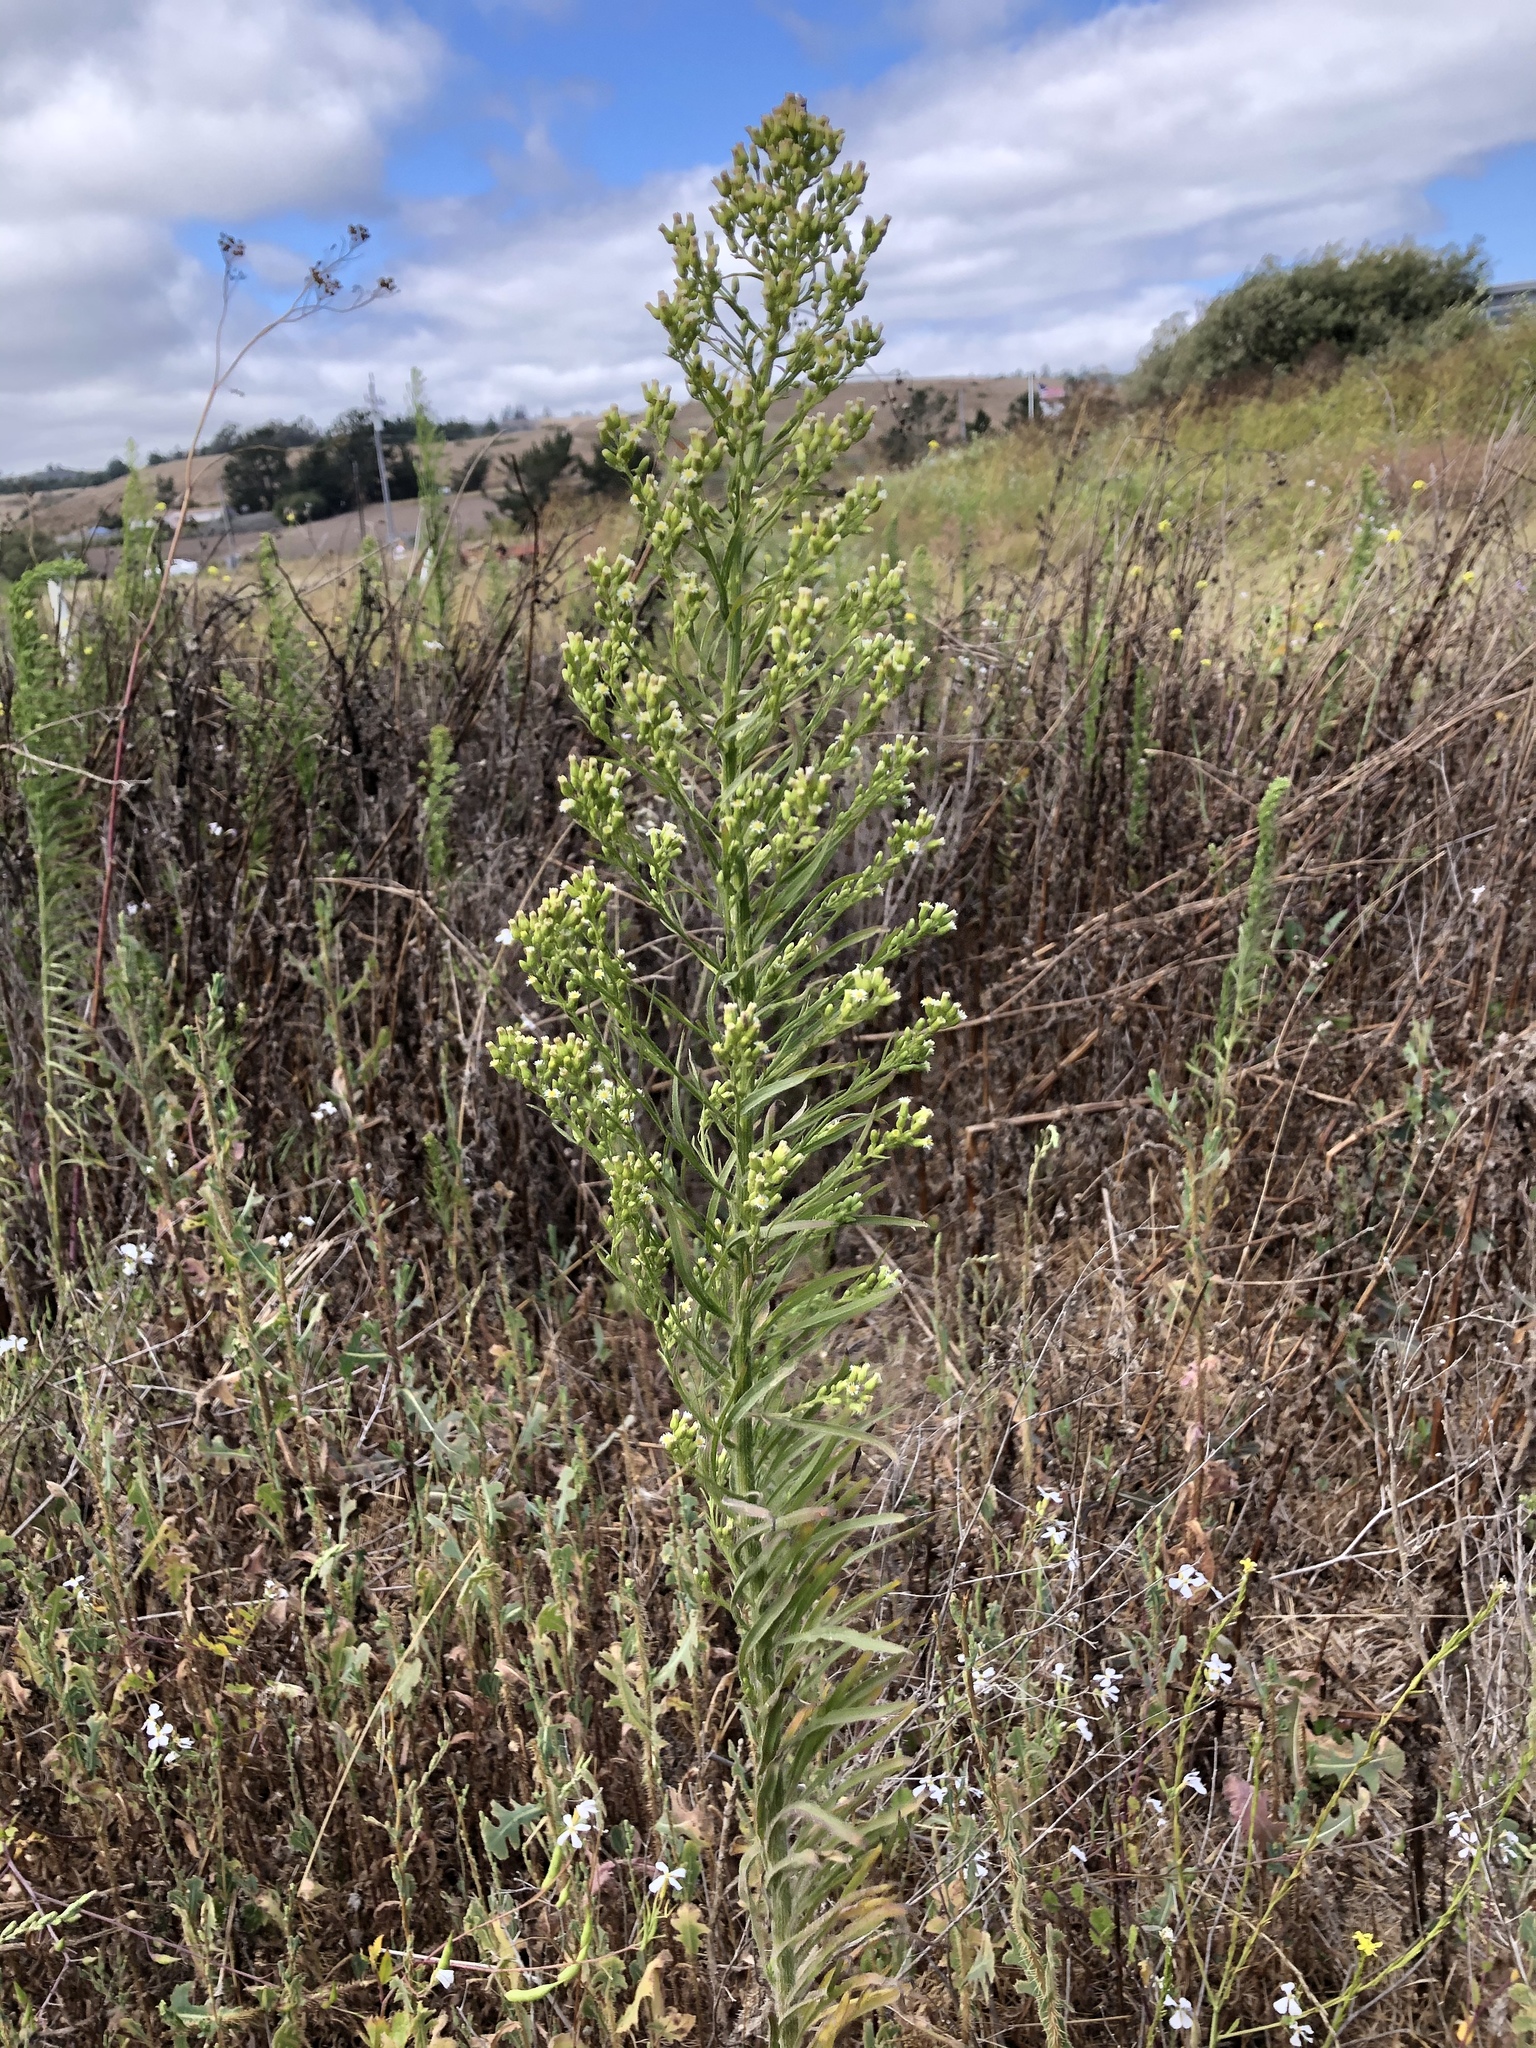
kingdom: Plantae
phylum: Tracheophyta
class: Magnoliopsida
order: Asterales
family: Asteraceae
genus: Erigeron
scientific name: Erigeron canadensis
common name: Canadian fleabane
